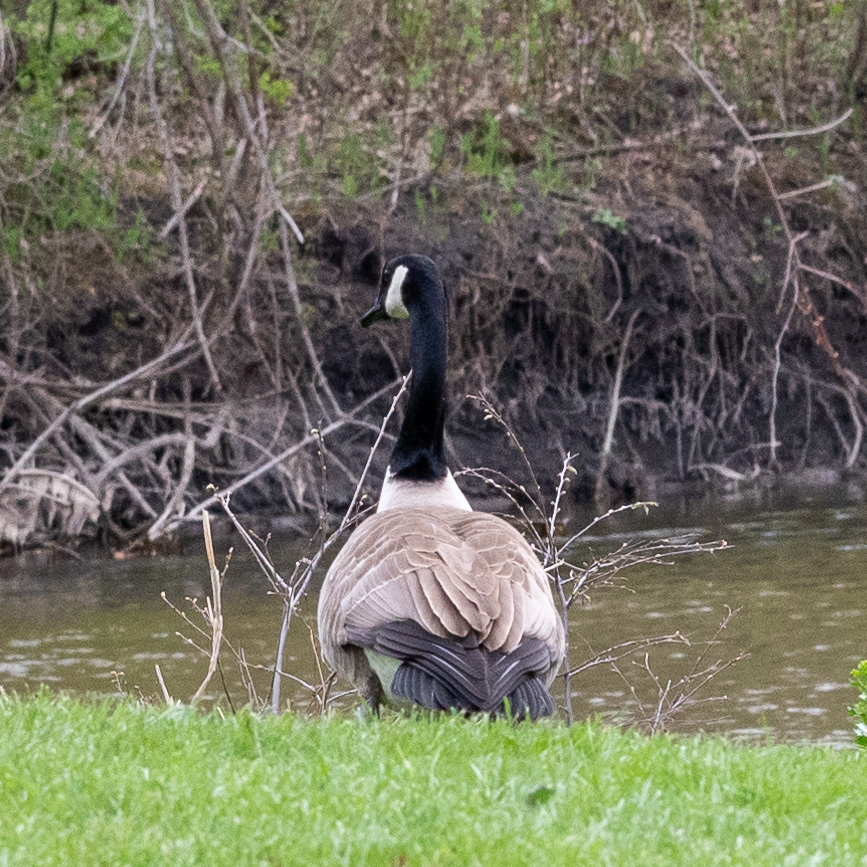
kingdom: Animalia
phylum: Chordata
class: Aves
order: Anseriformes
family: Anatidae
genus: Branta
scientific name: Branta canadensis
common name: Canada goose
